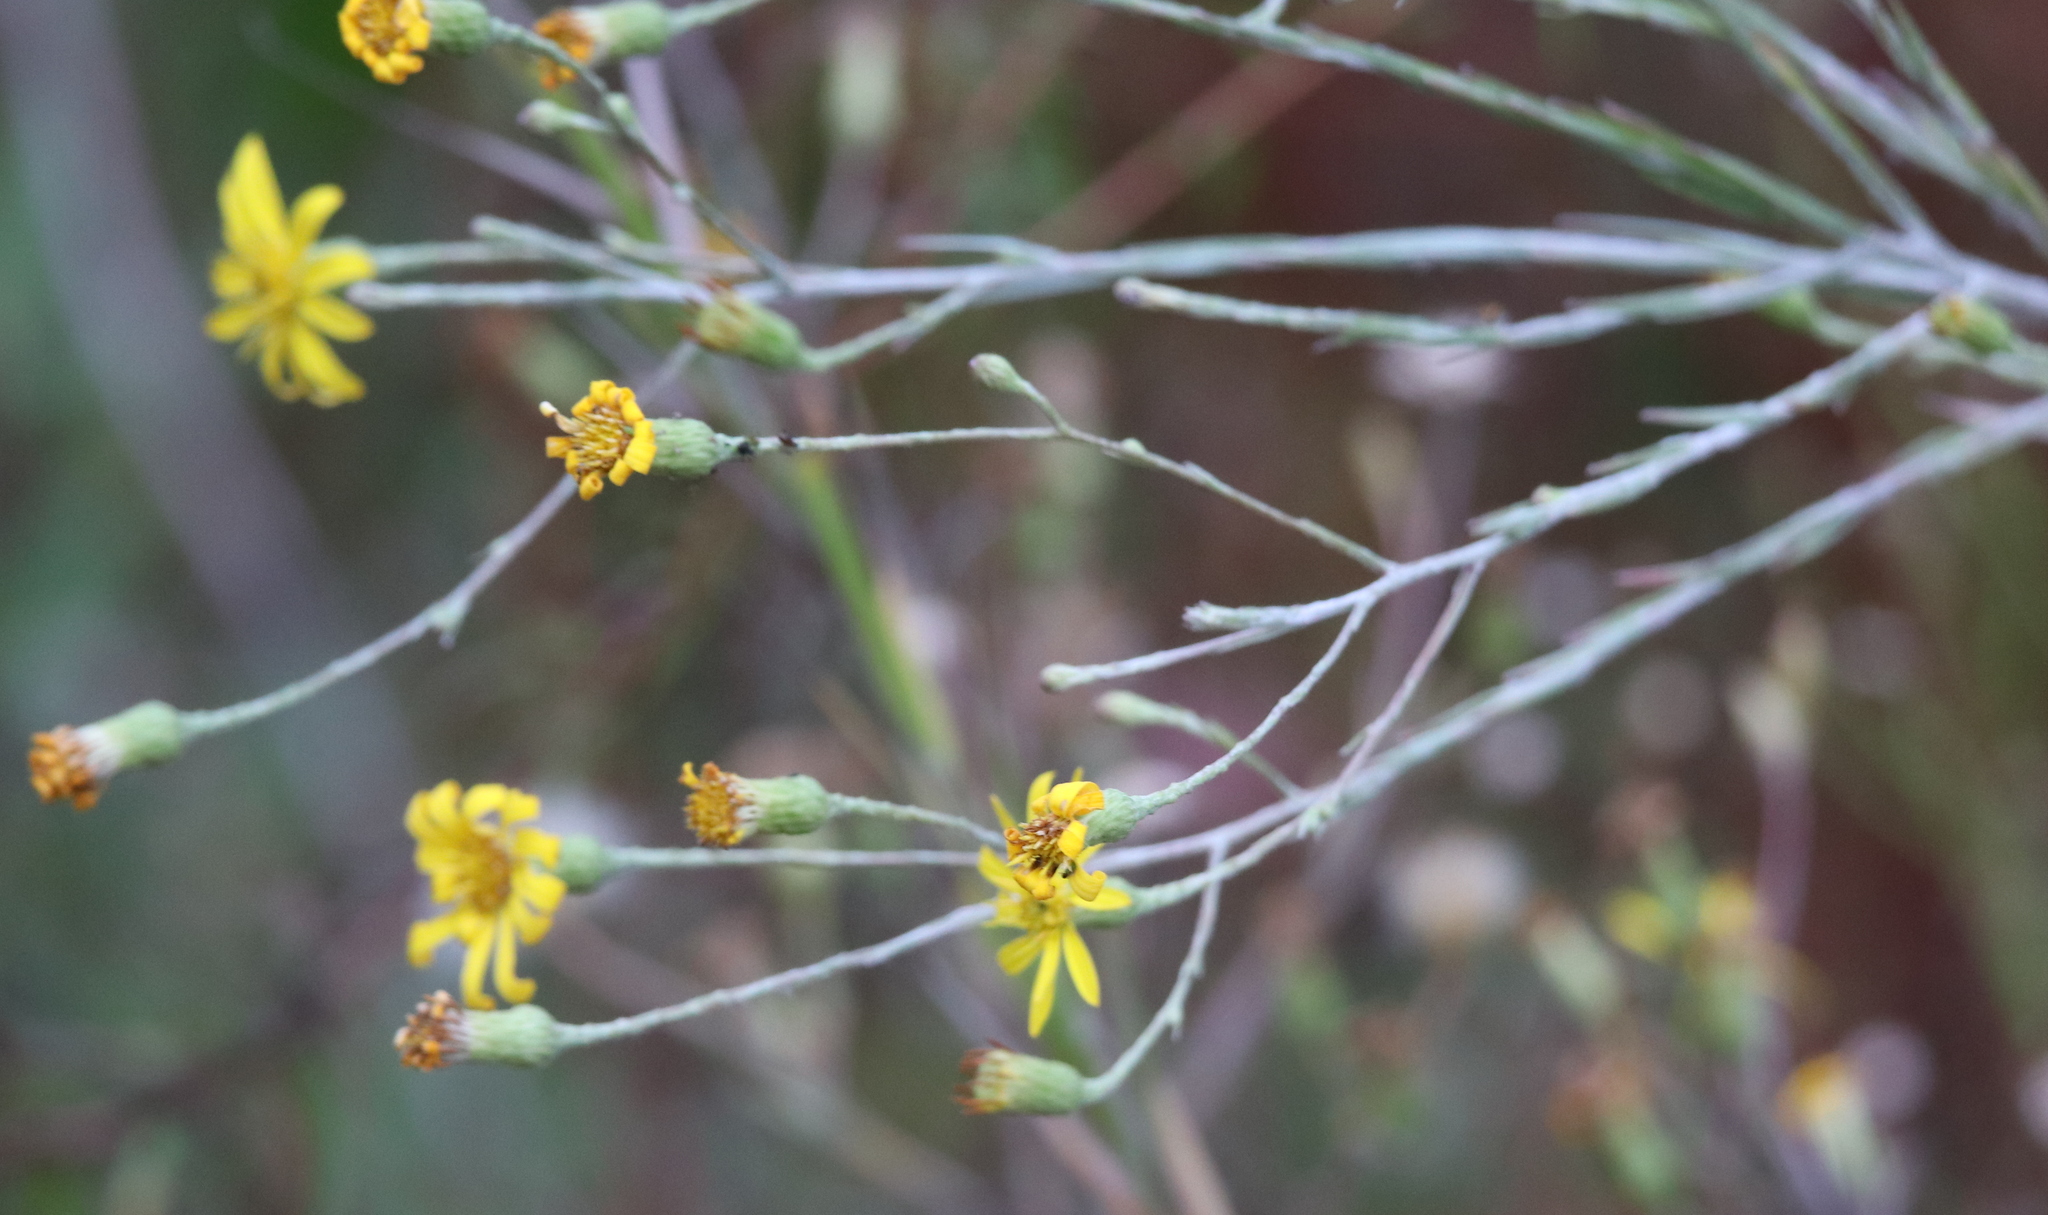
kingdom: Plantae
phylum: Tracheophyta
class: Magnoliopsida
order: Asterales
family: Asteraceae
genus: Pityopsis
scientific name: Pityopsis graminifolia
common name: Grass-leaf golden-aster
